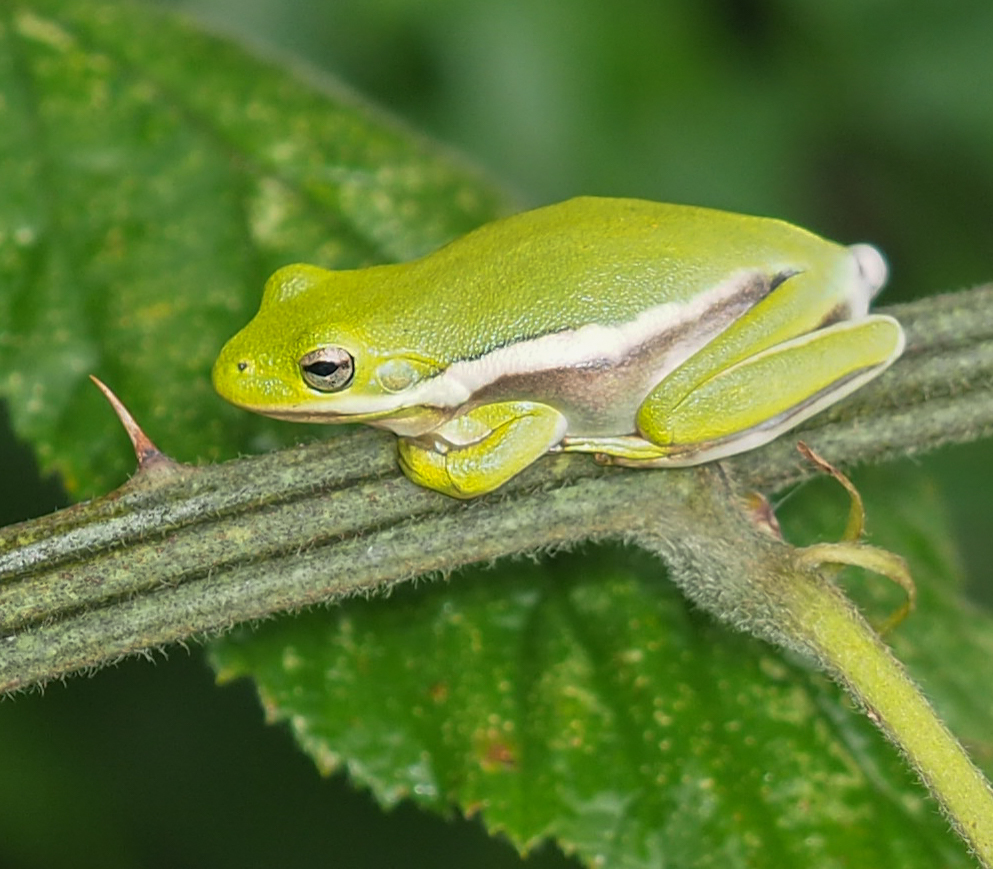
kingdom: Animalia
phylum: Chordata
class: Amphibia
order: Anura
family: Hylidae
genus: Dryophytes
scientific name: Dryophytes cinereus
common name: Green treefrog
